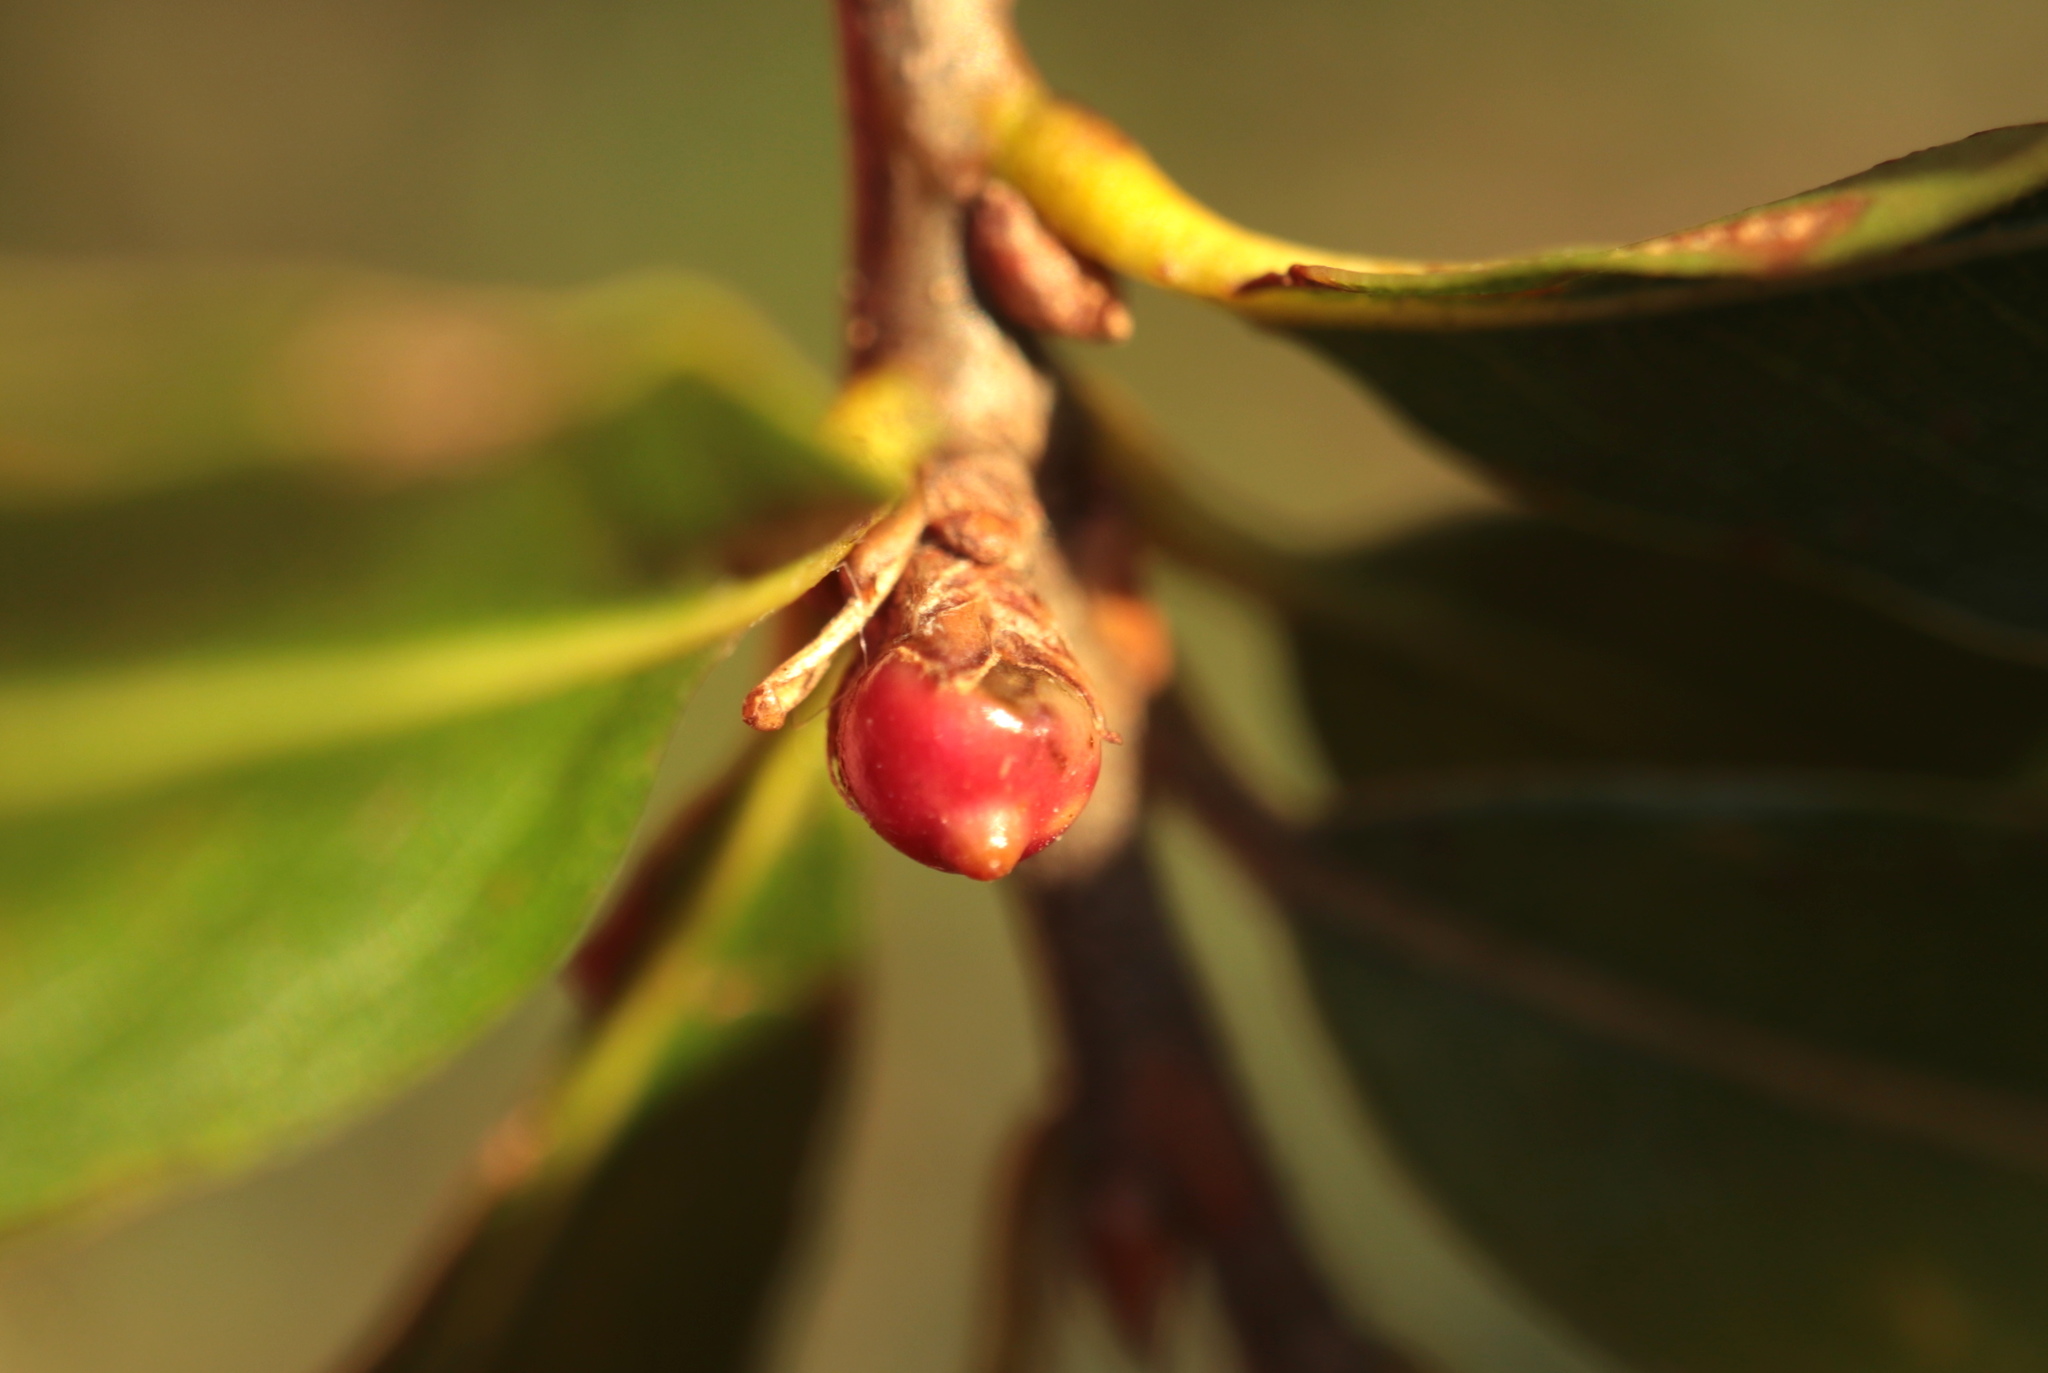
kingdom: Animalia
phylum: Arthropoda
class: Insecta
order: Hymenoptera
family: Cynipidae
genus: Callirhytis
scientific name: Callirhytis
